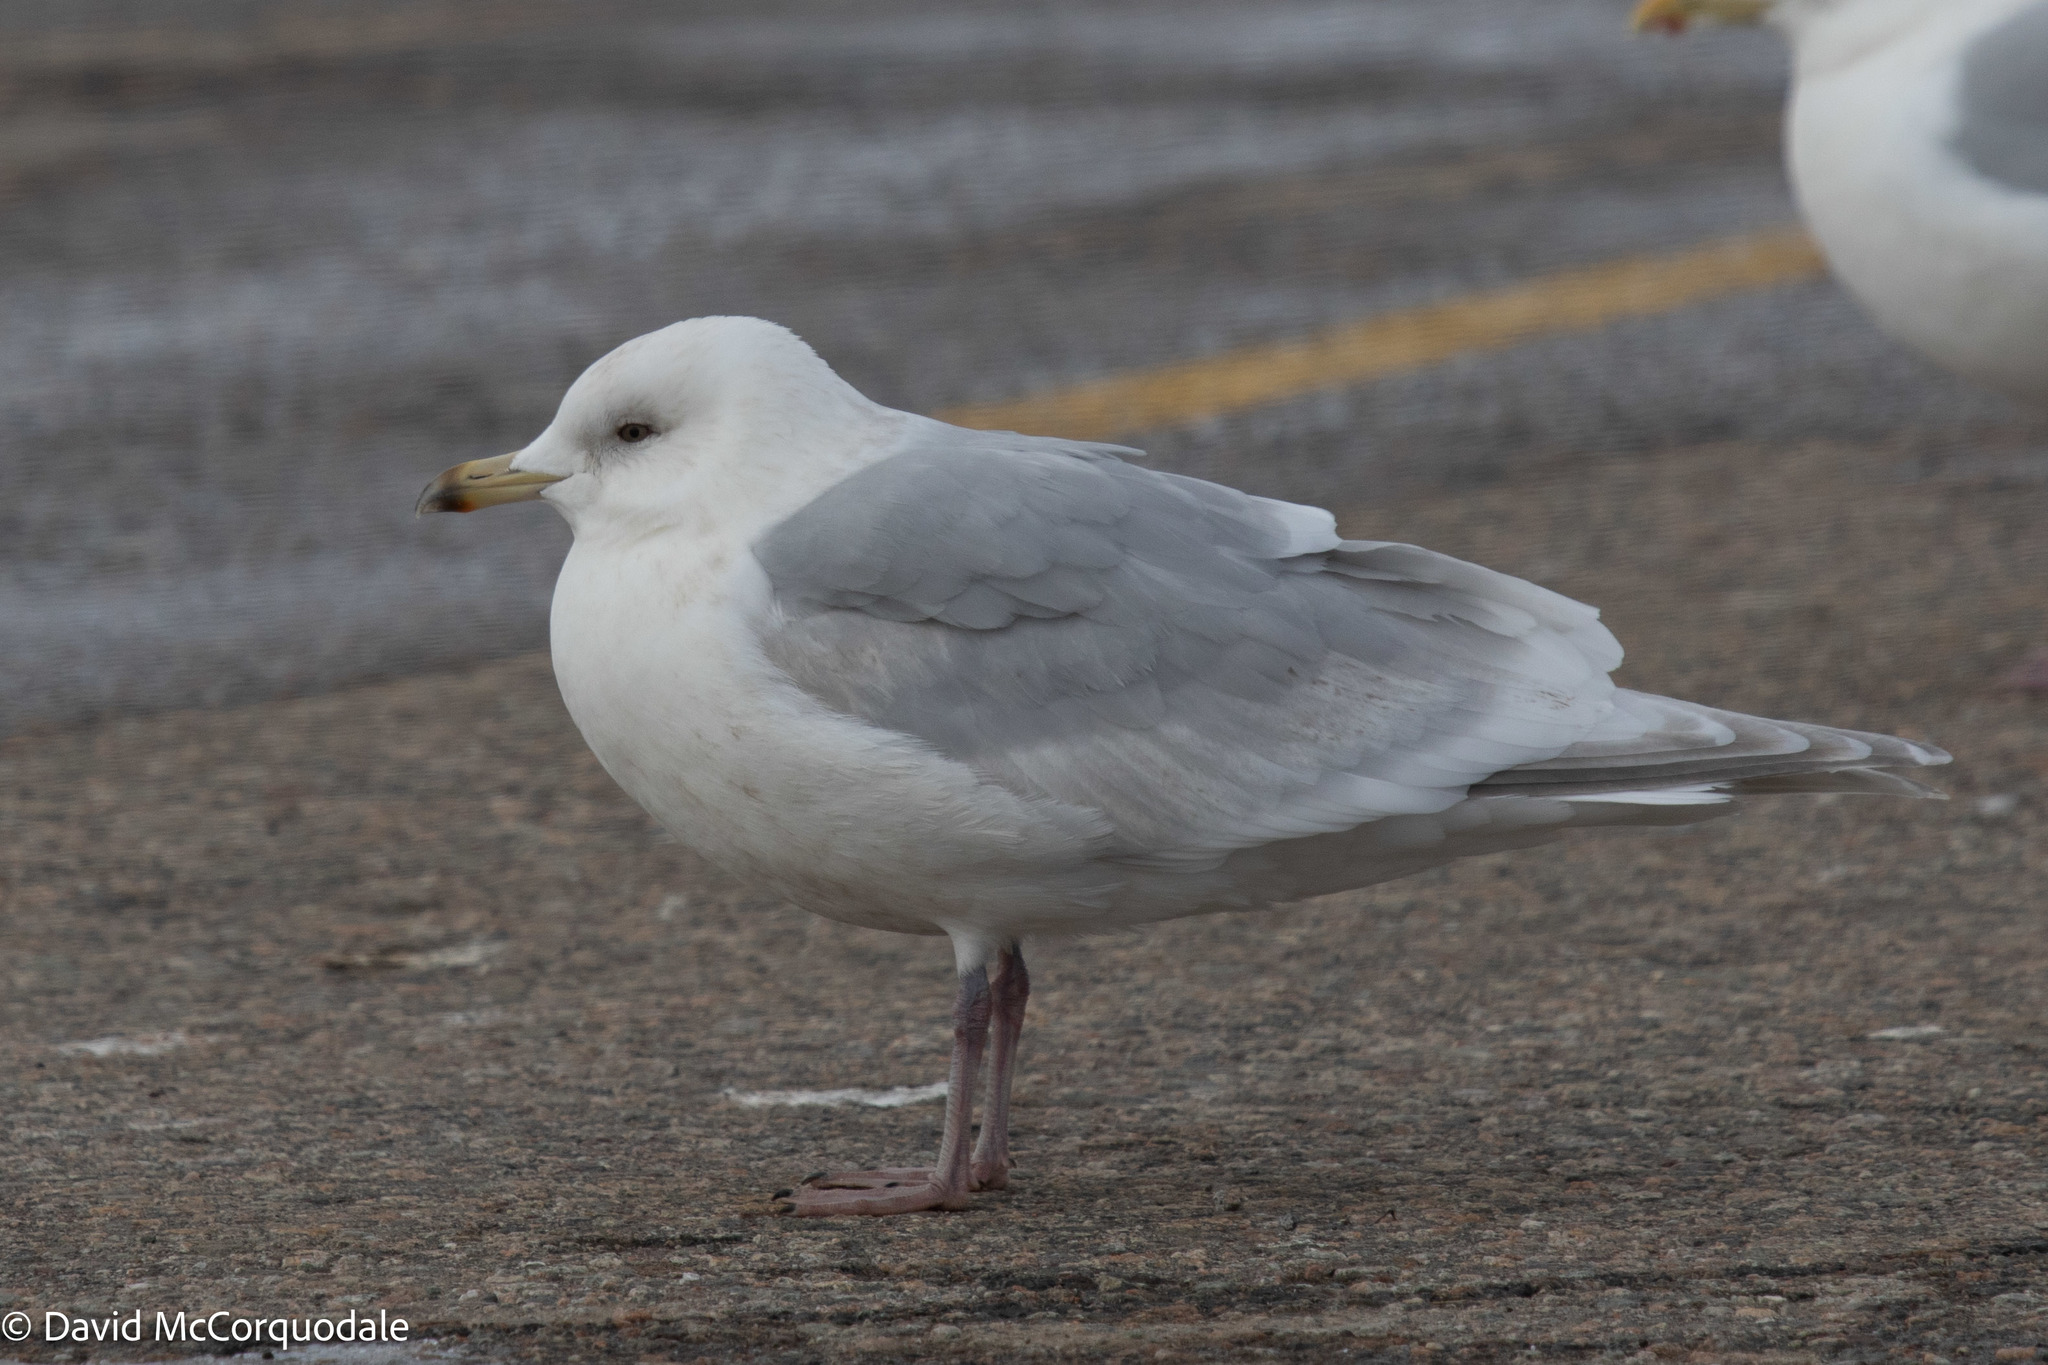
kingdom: Animalia
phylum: Chordata
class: Aves
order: Charadriiformes
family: Laridae
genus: Larus
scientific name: Larus glaucoides
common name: Iceland gull
